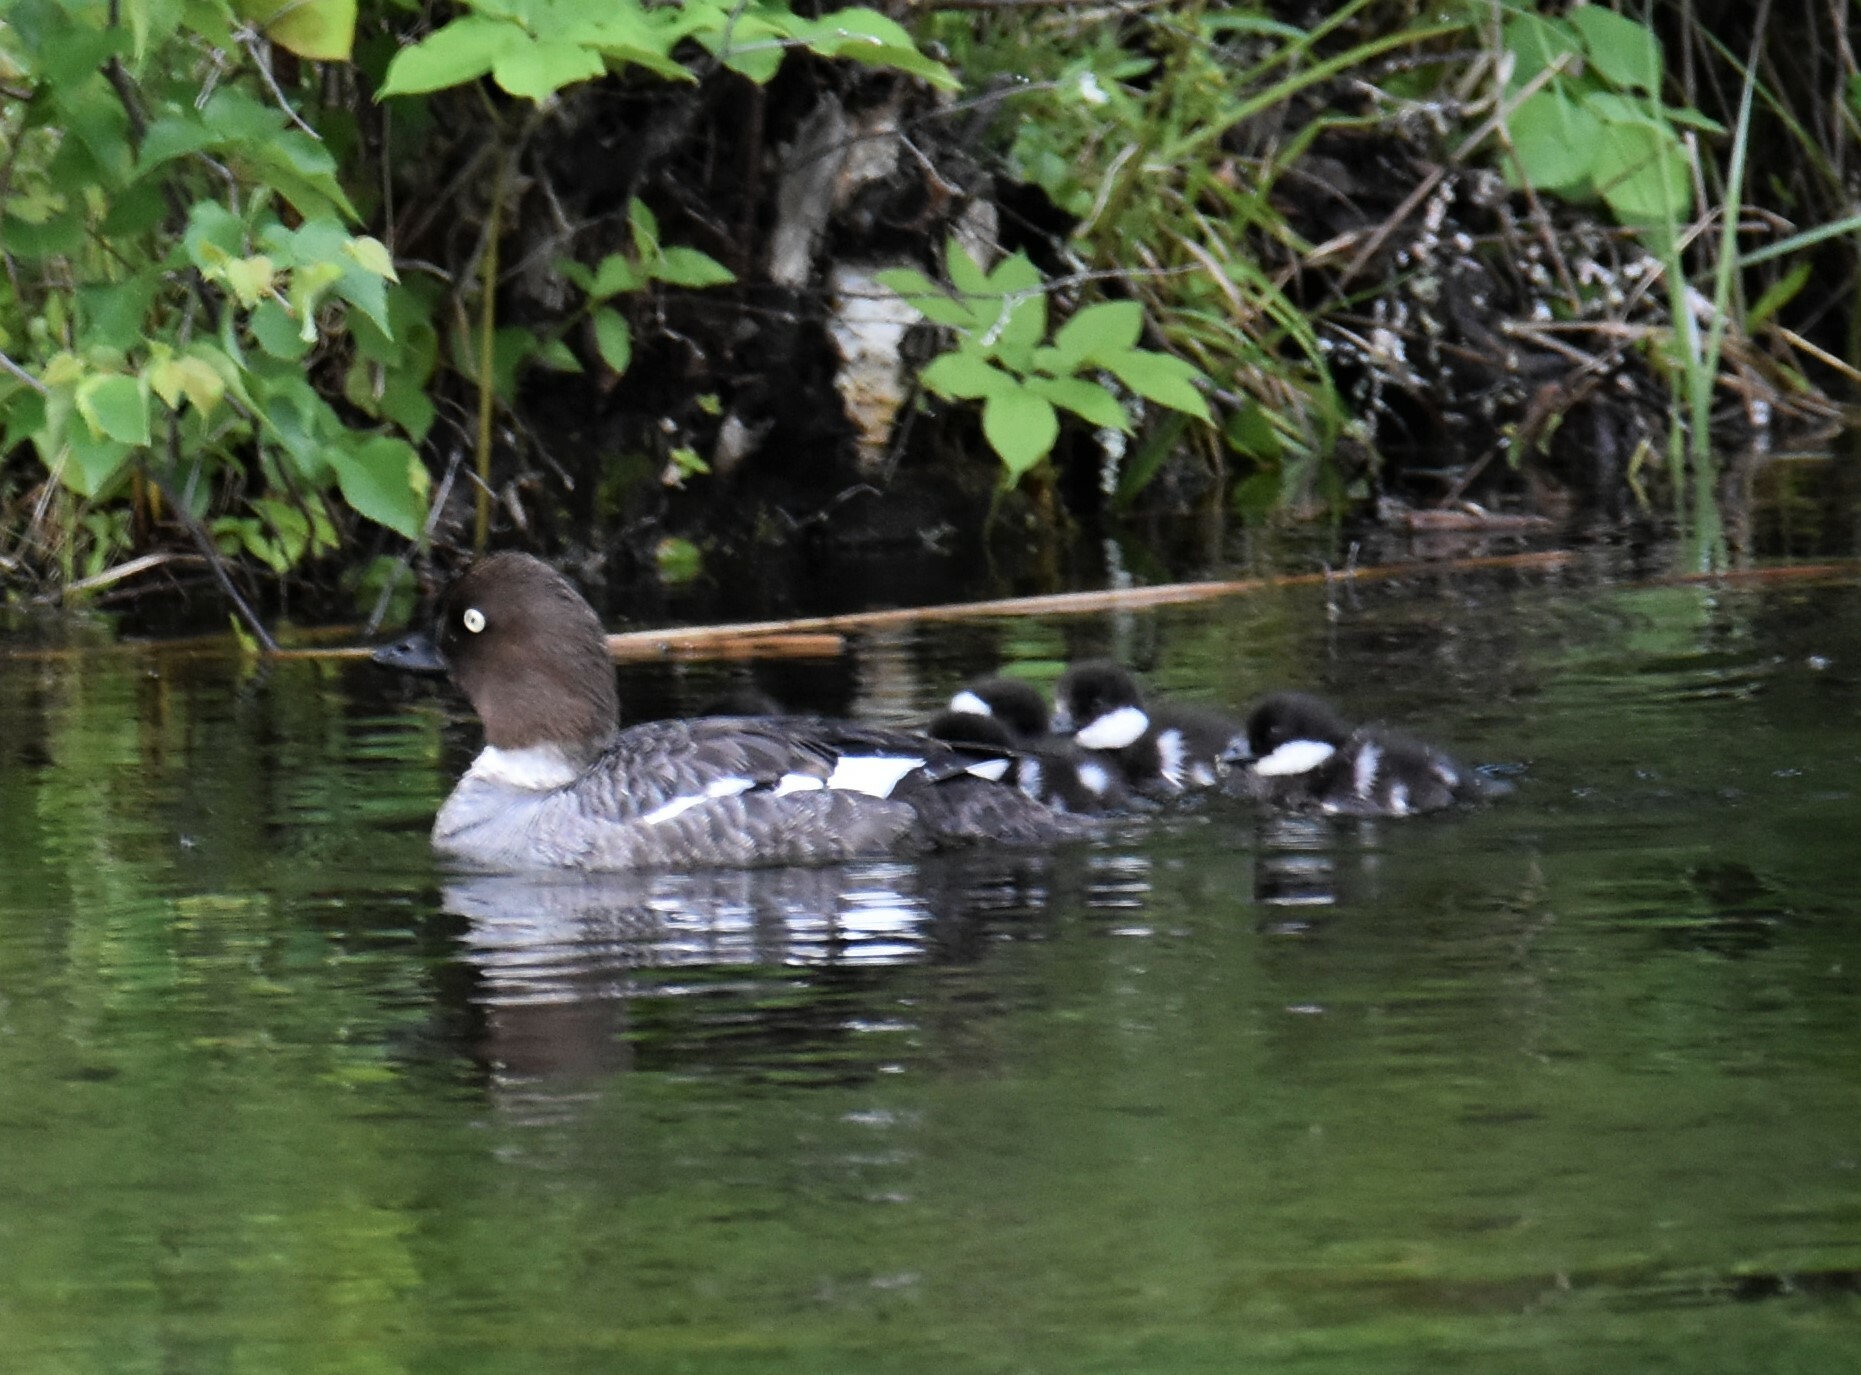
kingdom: Animalia
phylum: Chordata
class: Aves
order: Anseriformes
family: Anatidae
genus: Bucephala
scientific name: Bucephala clangula
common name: Common goldeneye
